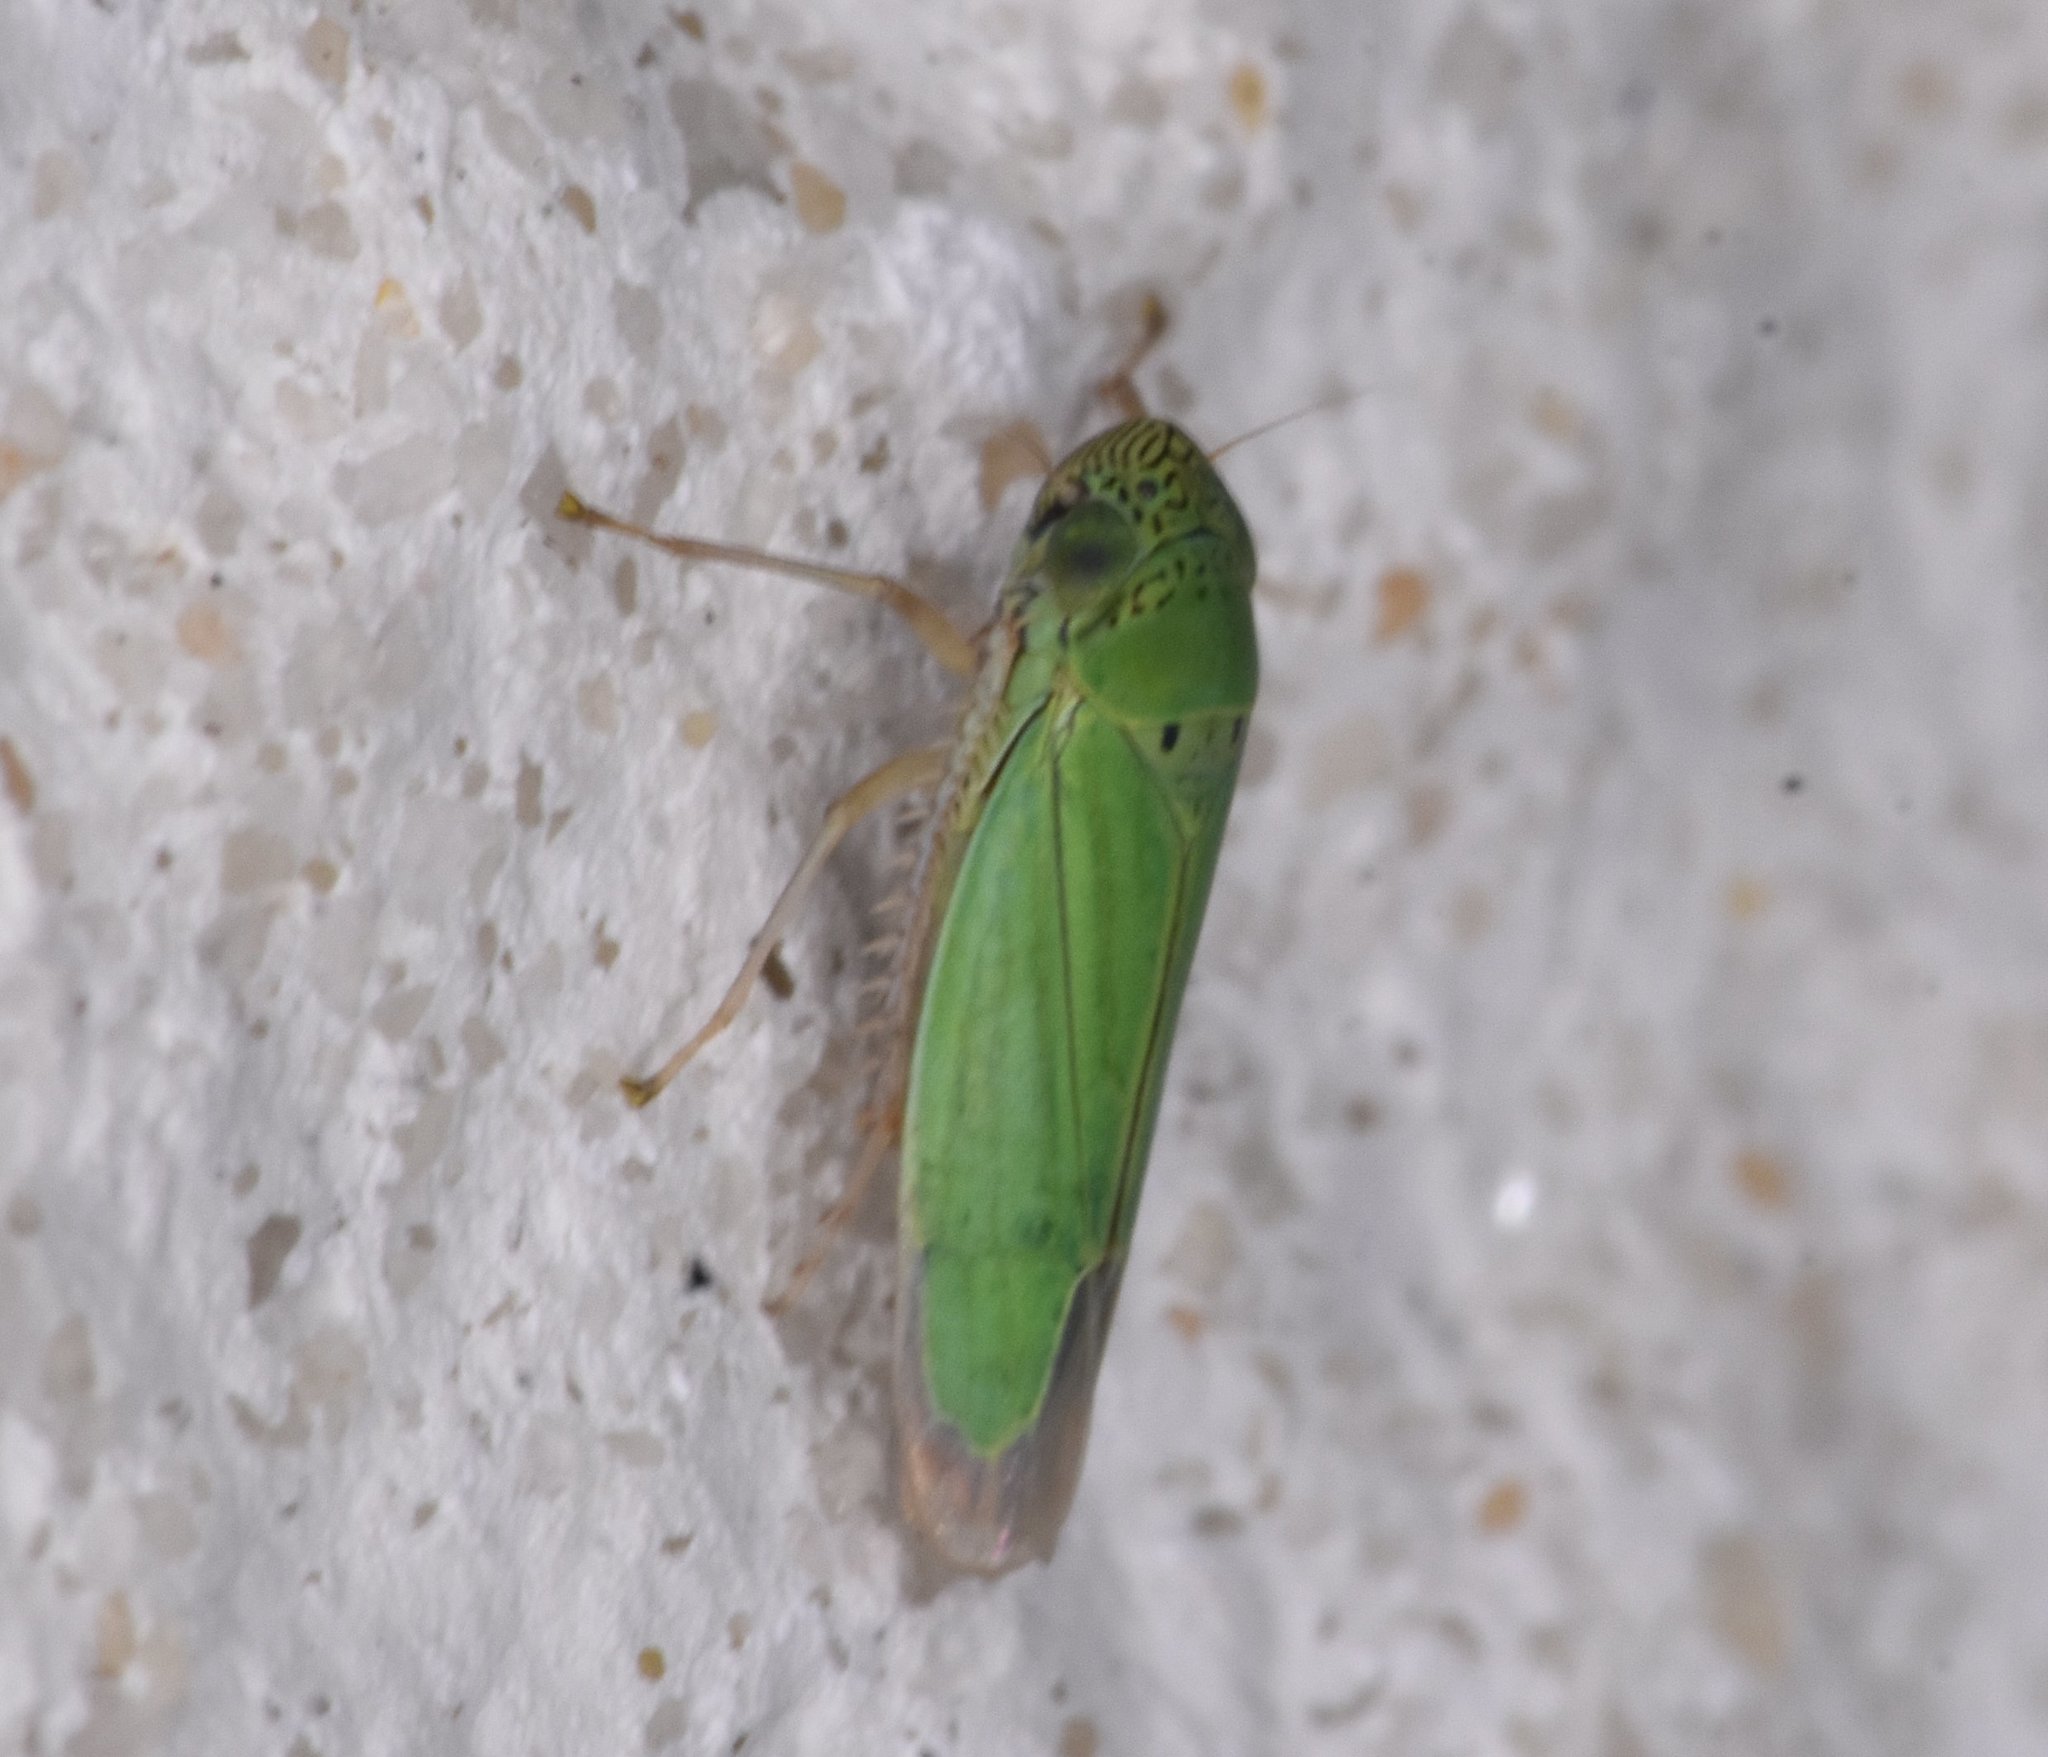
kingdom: Animalia
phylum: Arthropoda
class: Insecta
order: Hemiptera
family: Cicadellidae
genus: Hortensia
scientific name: Hortensia similis
